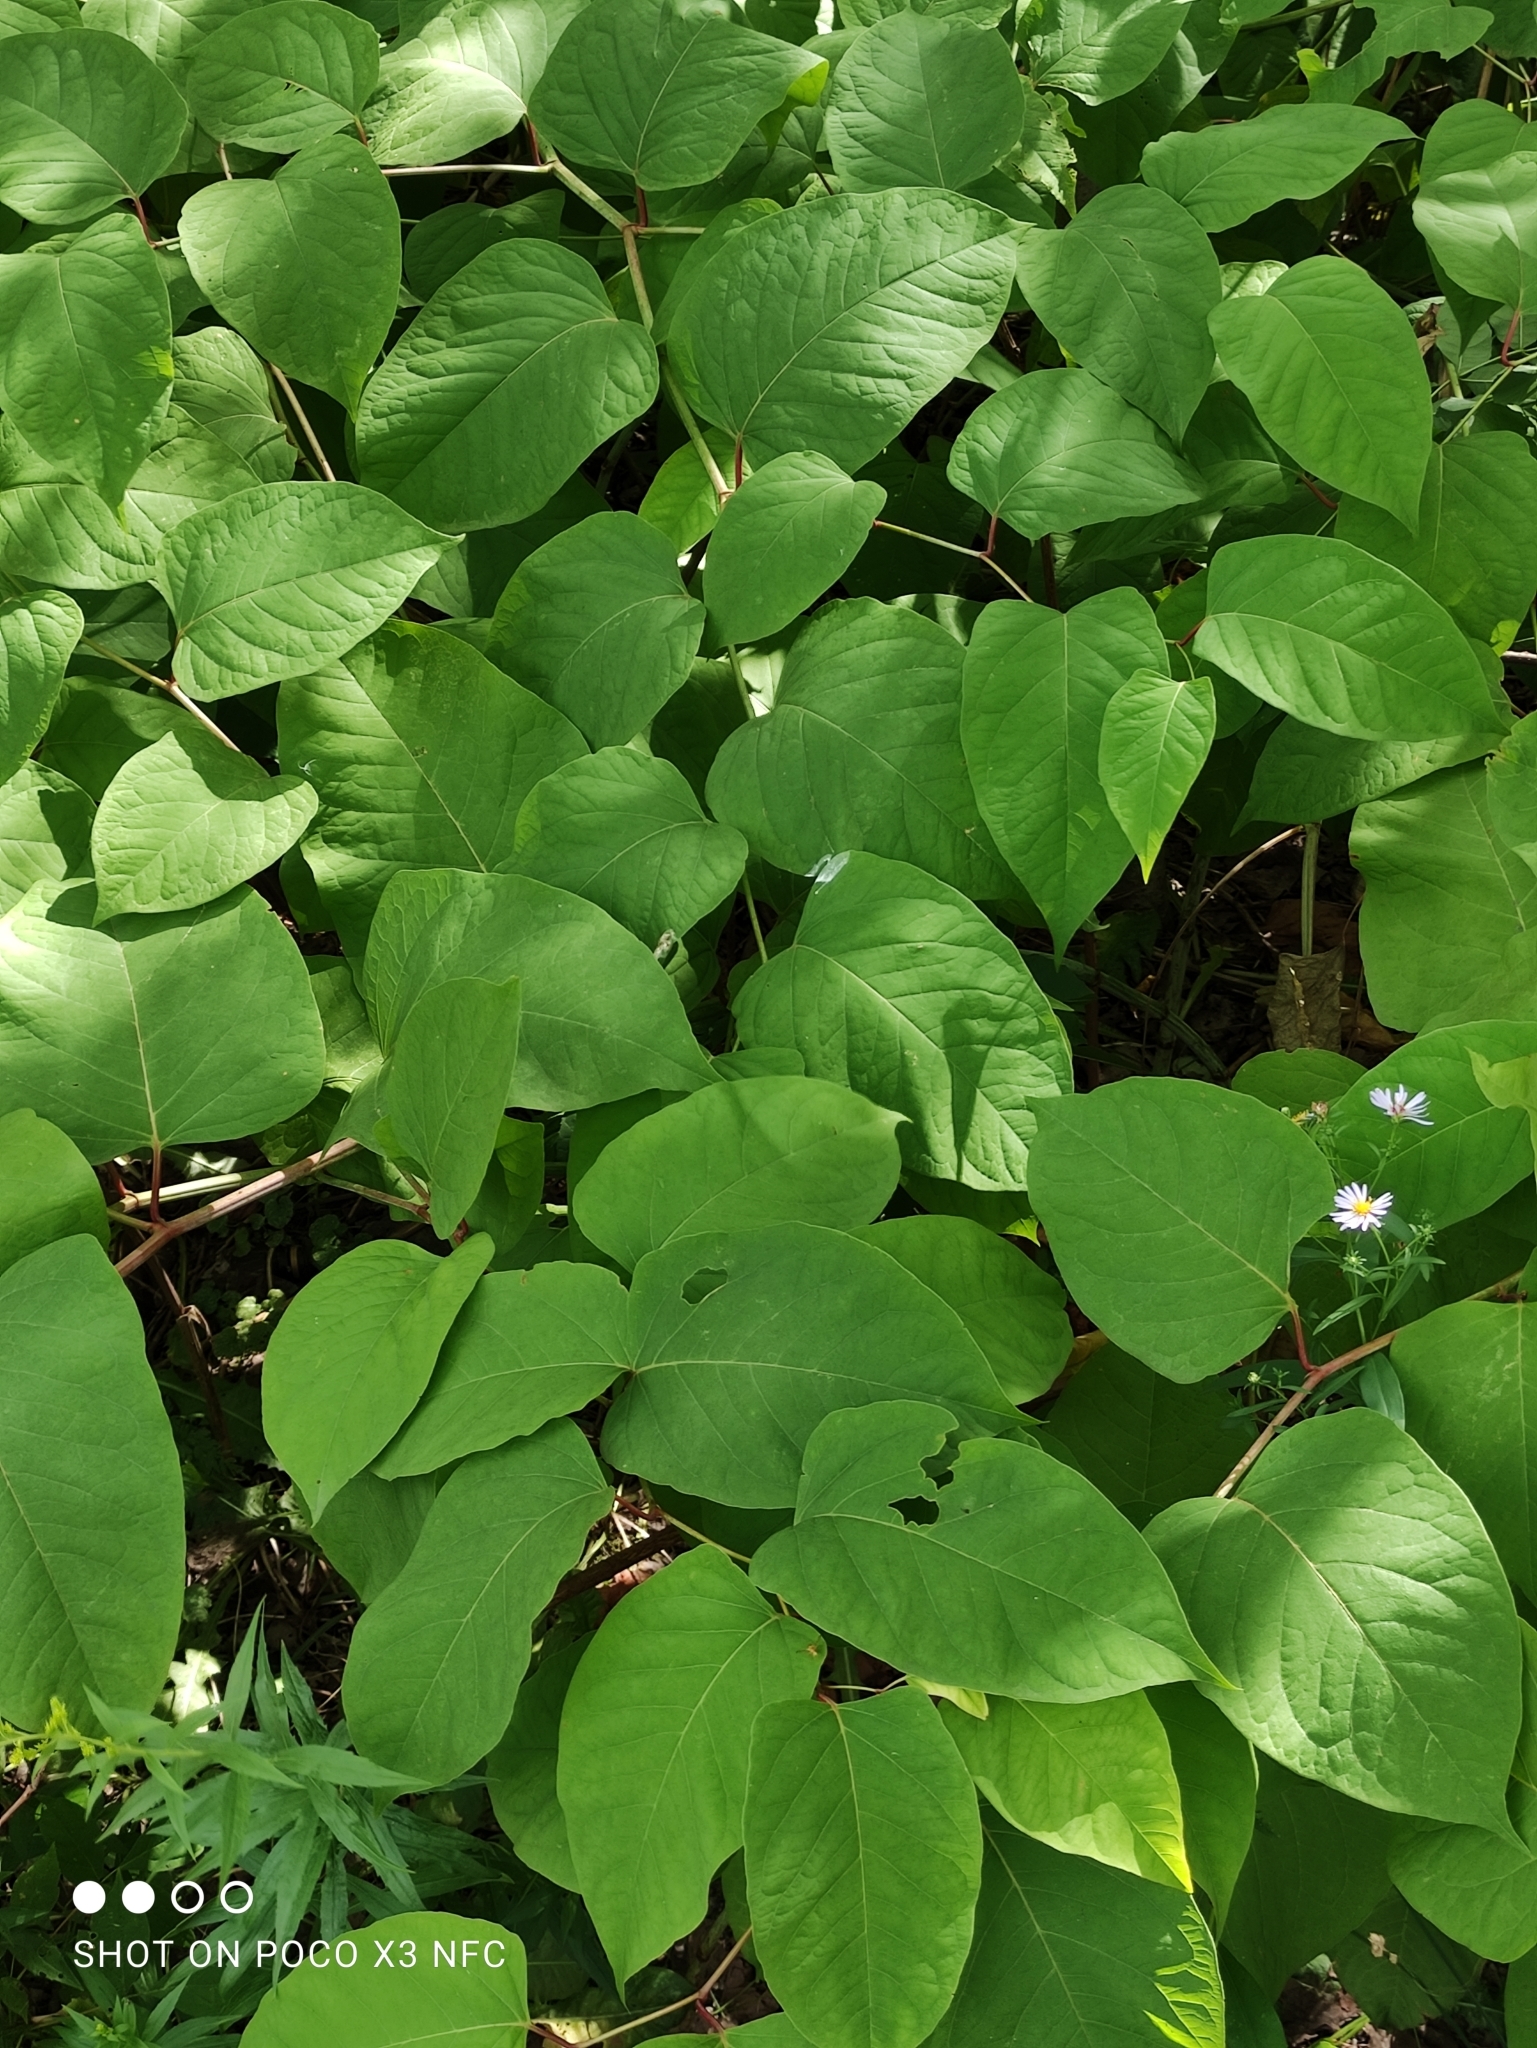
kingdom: Plantae
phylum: Tracheophyta
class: Magnoliopsida
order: Caryophyllales
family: Polygonaceae
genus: Reynoutria
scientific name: Reynoutria bohemica
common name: Bohemian knotweed
